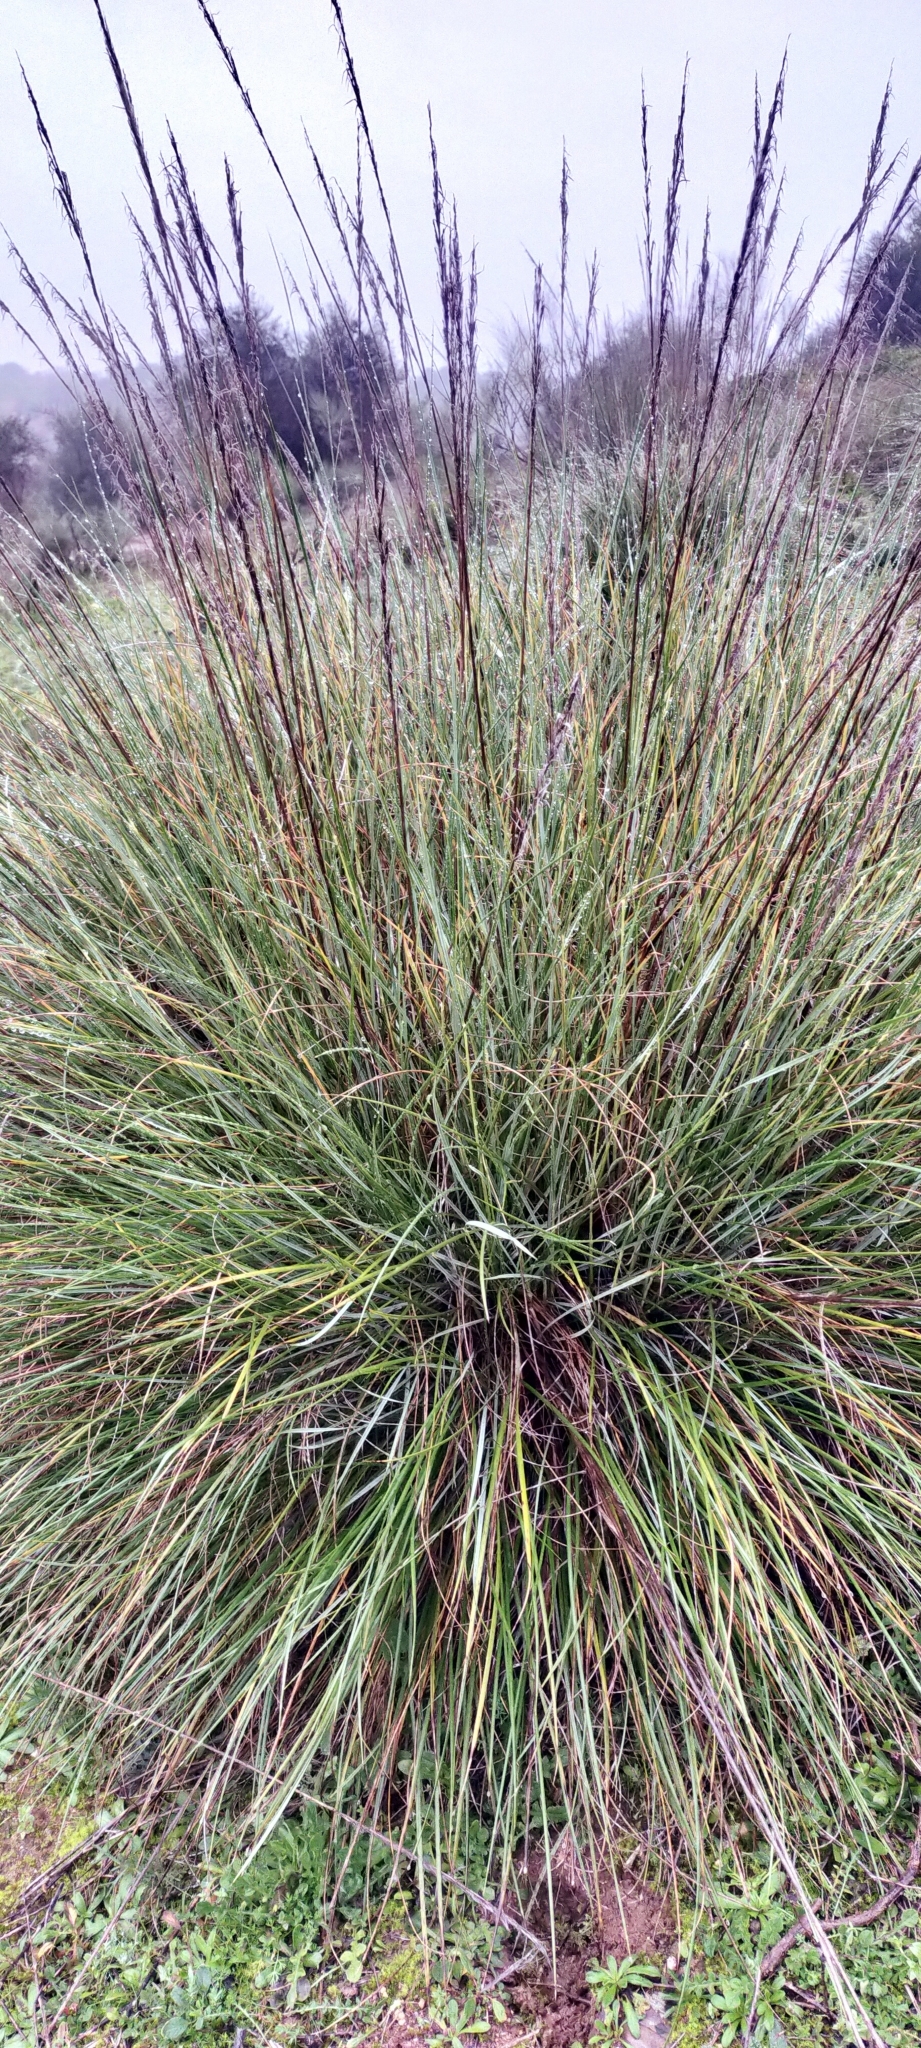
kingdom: Plantae
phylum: Tracheophyta
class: Liliopsida
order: Poales
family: Poaceae
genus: Macrochloa
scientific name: Macrochloa tenacissima
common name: Alfa grass
